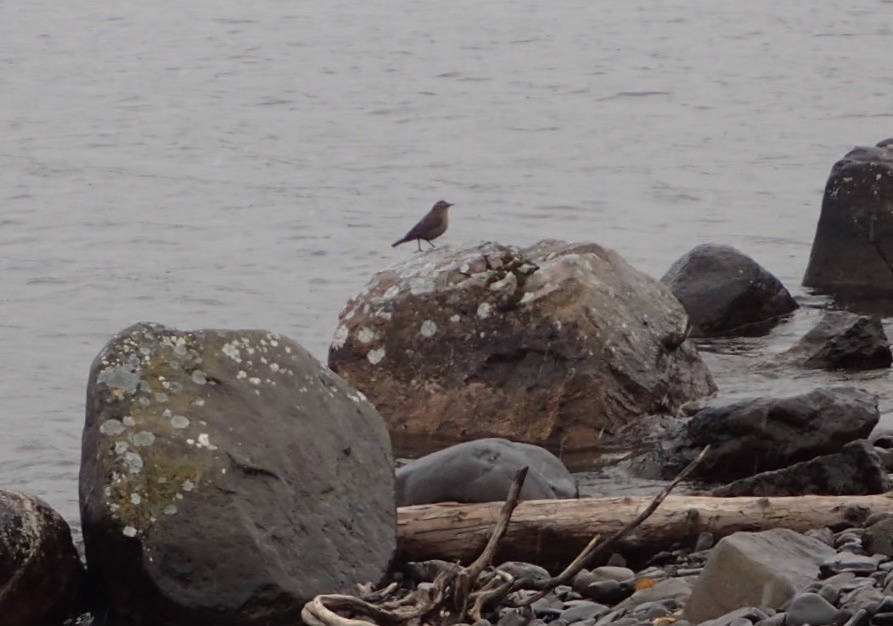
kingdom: Animalia
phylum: Chordata
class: Aves
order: Passeriformes
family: Icteridae
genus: Euphagus
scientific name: Euphagus carolinus
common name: Rusty blackbird
